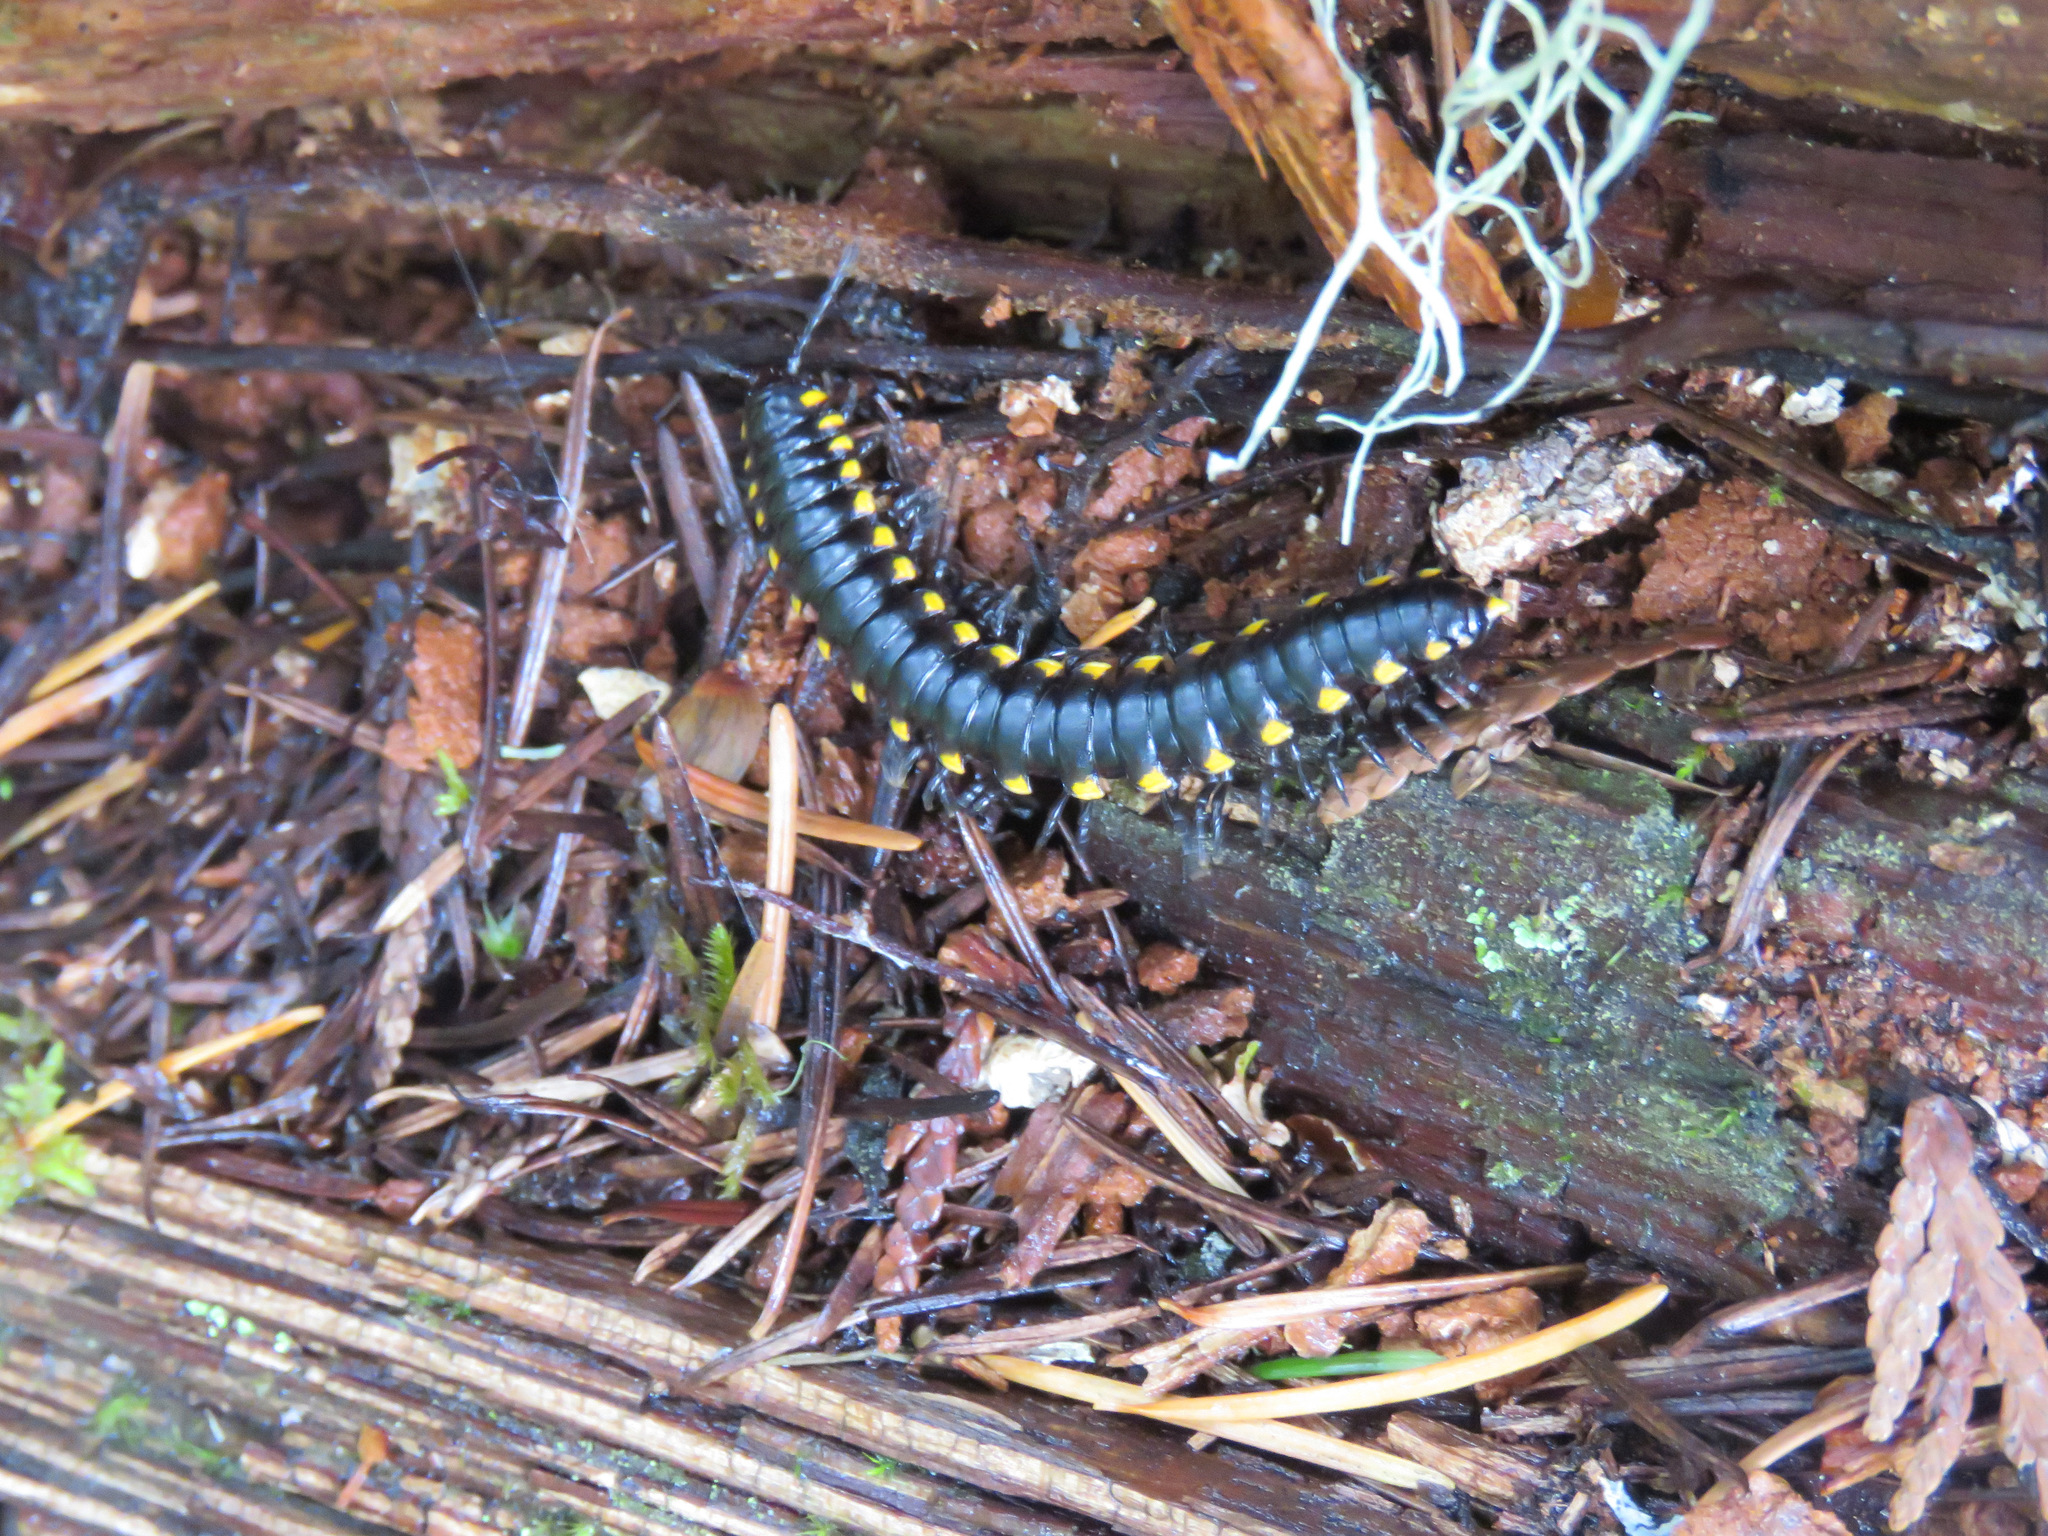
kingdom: Animalia
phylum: Arthropoda
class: Diplopoda
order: Polydesmida
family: Xystodesmidae
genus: Harpaphe
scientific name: Harpaphe haydeniana
